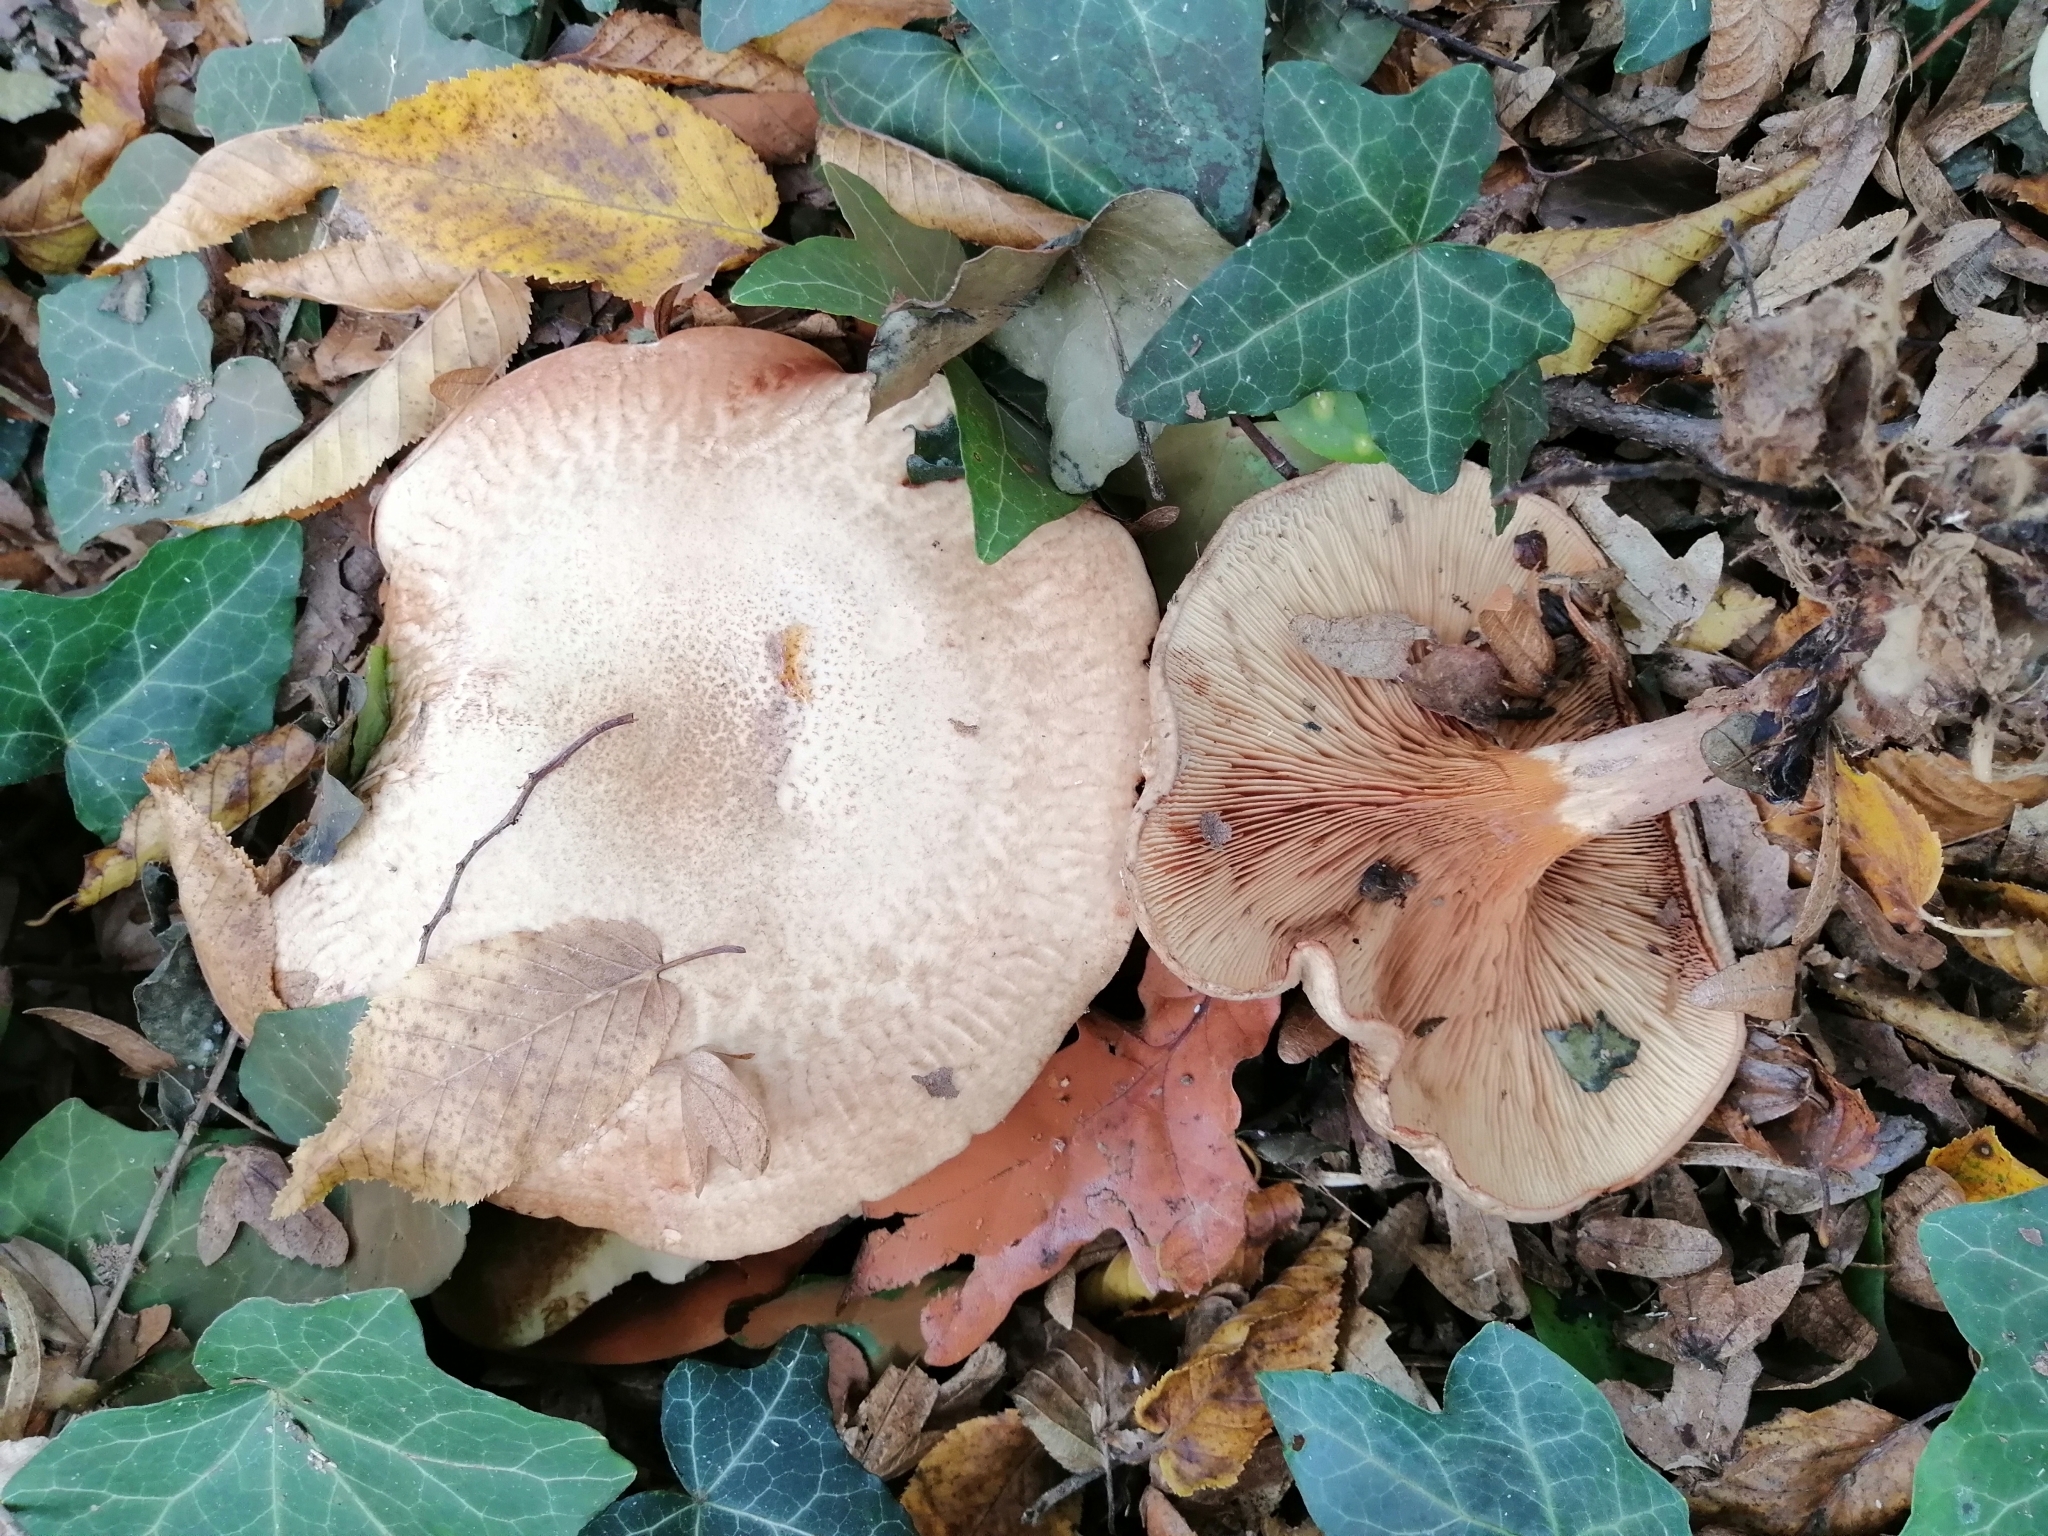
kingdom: Fungi
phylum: Basidiomycota
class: Agaricomycetes
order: Boletales
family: Paxillaceae
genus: Paxillus
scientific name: Paxillus involutus
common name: Brown roll rim
